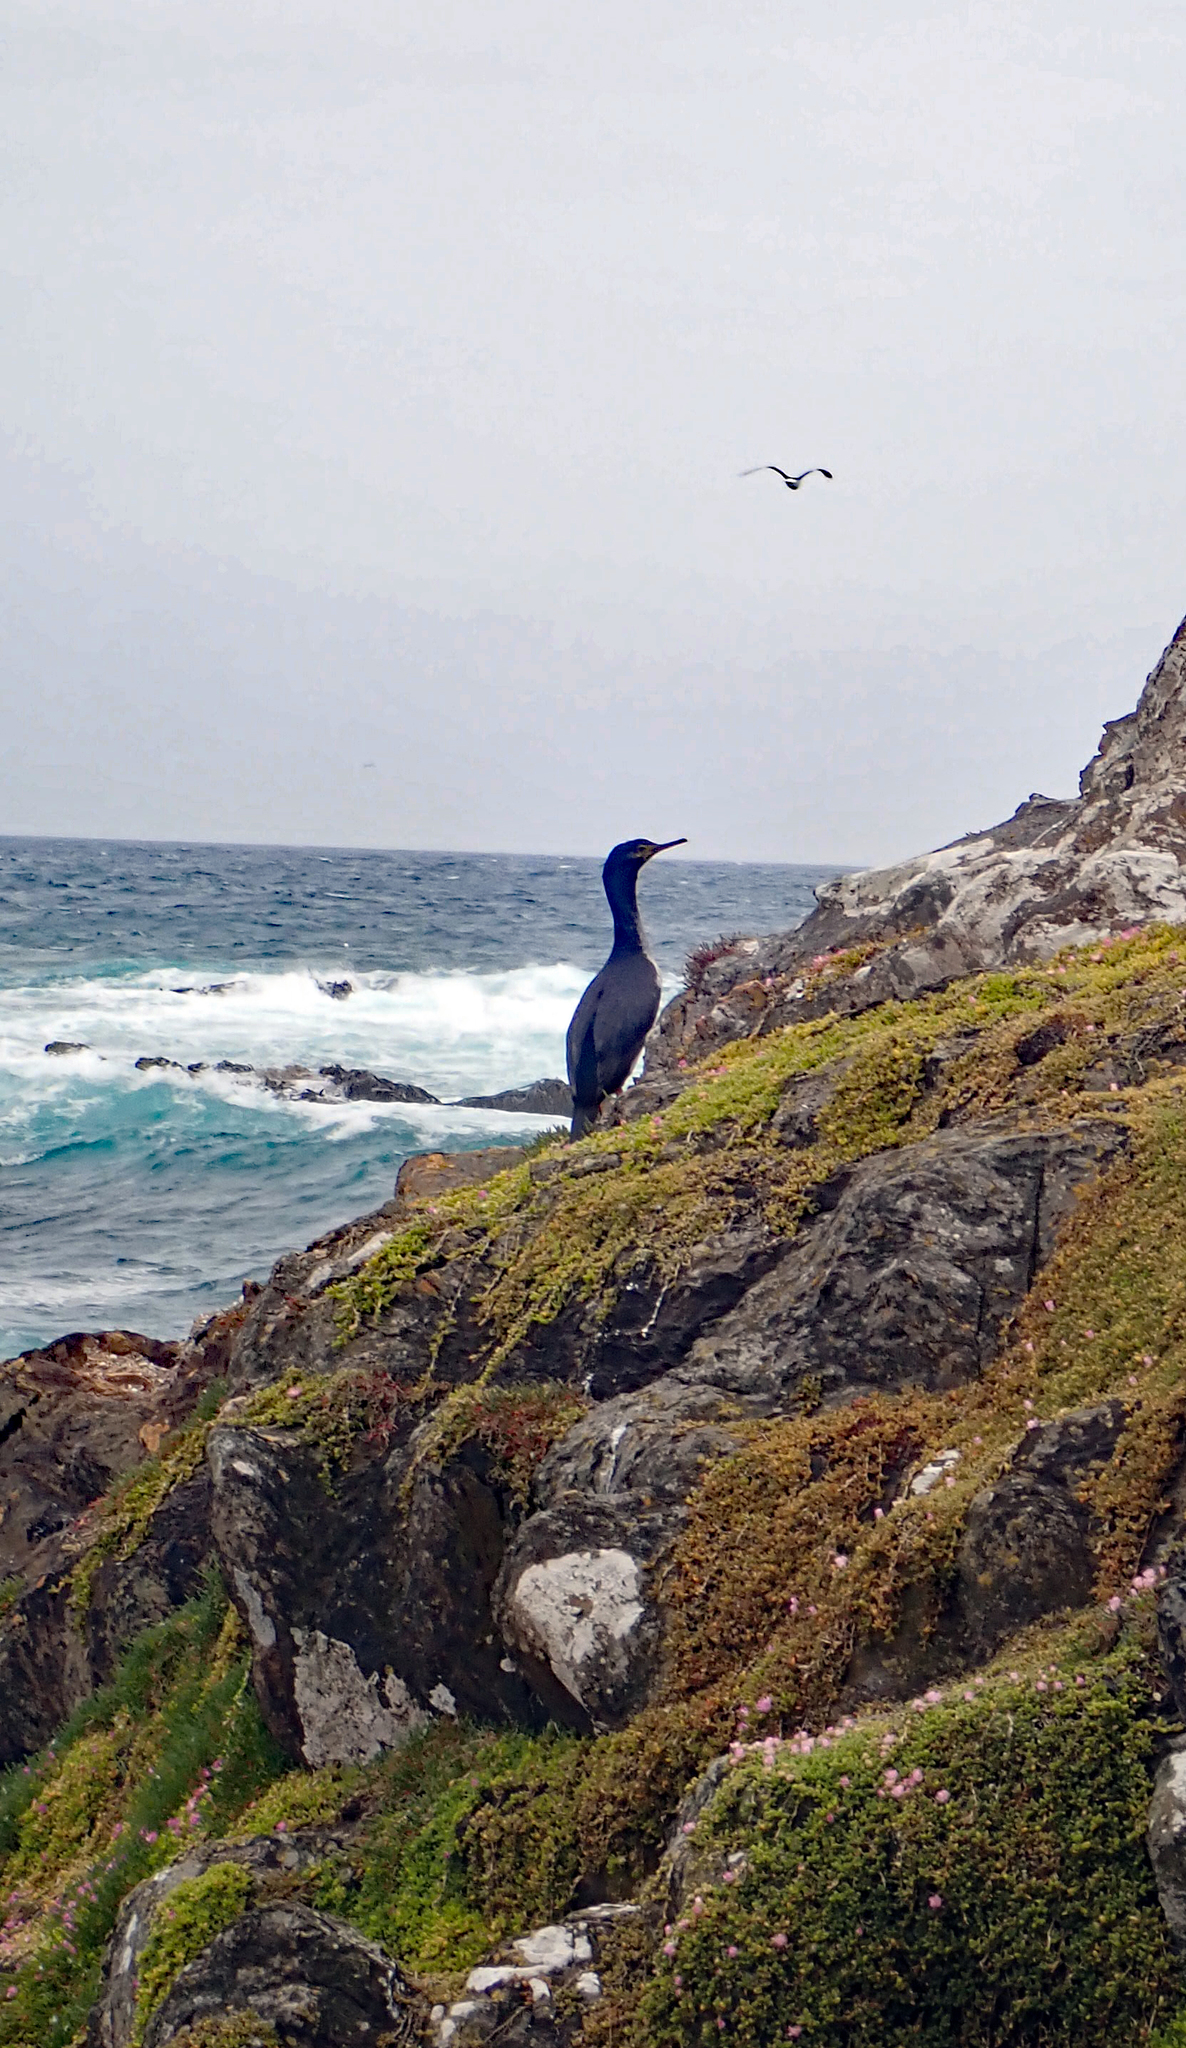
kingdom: Animalia
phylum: Chordata
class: Aves
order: Suliformes
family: Phalacrocoracidae
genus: Phalacrocorax
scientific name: Phalacrocorax featherstoni
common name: Pitt shag
